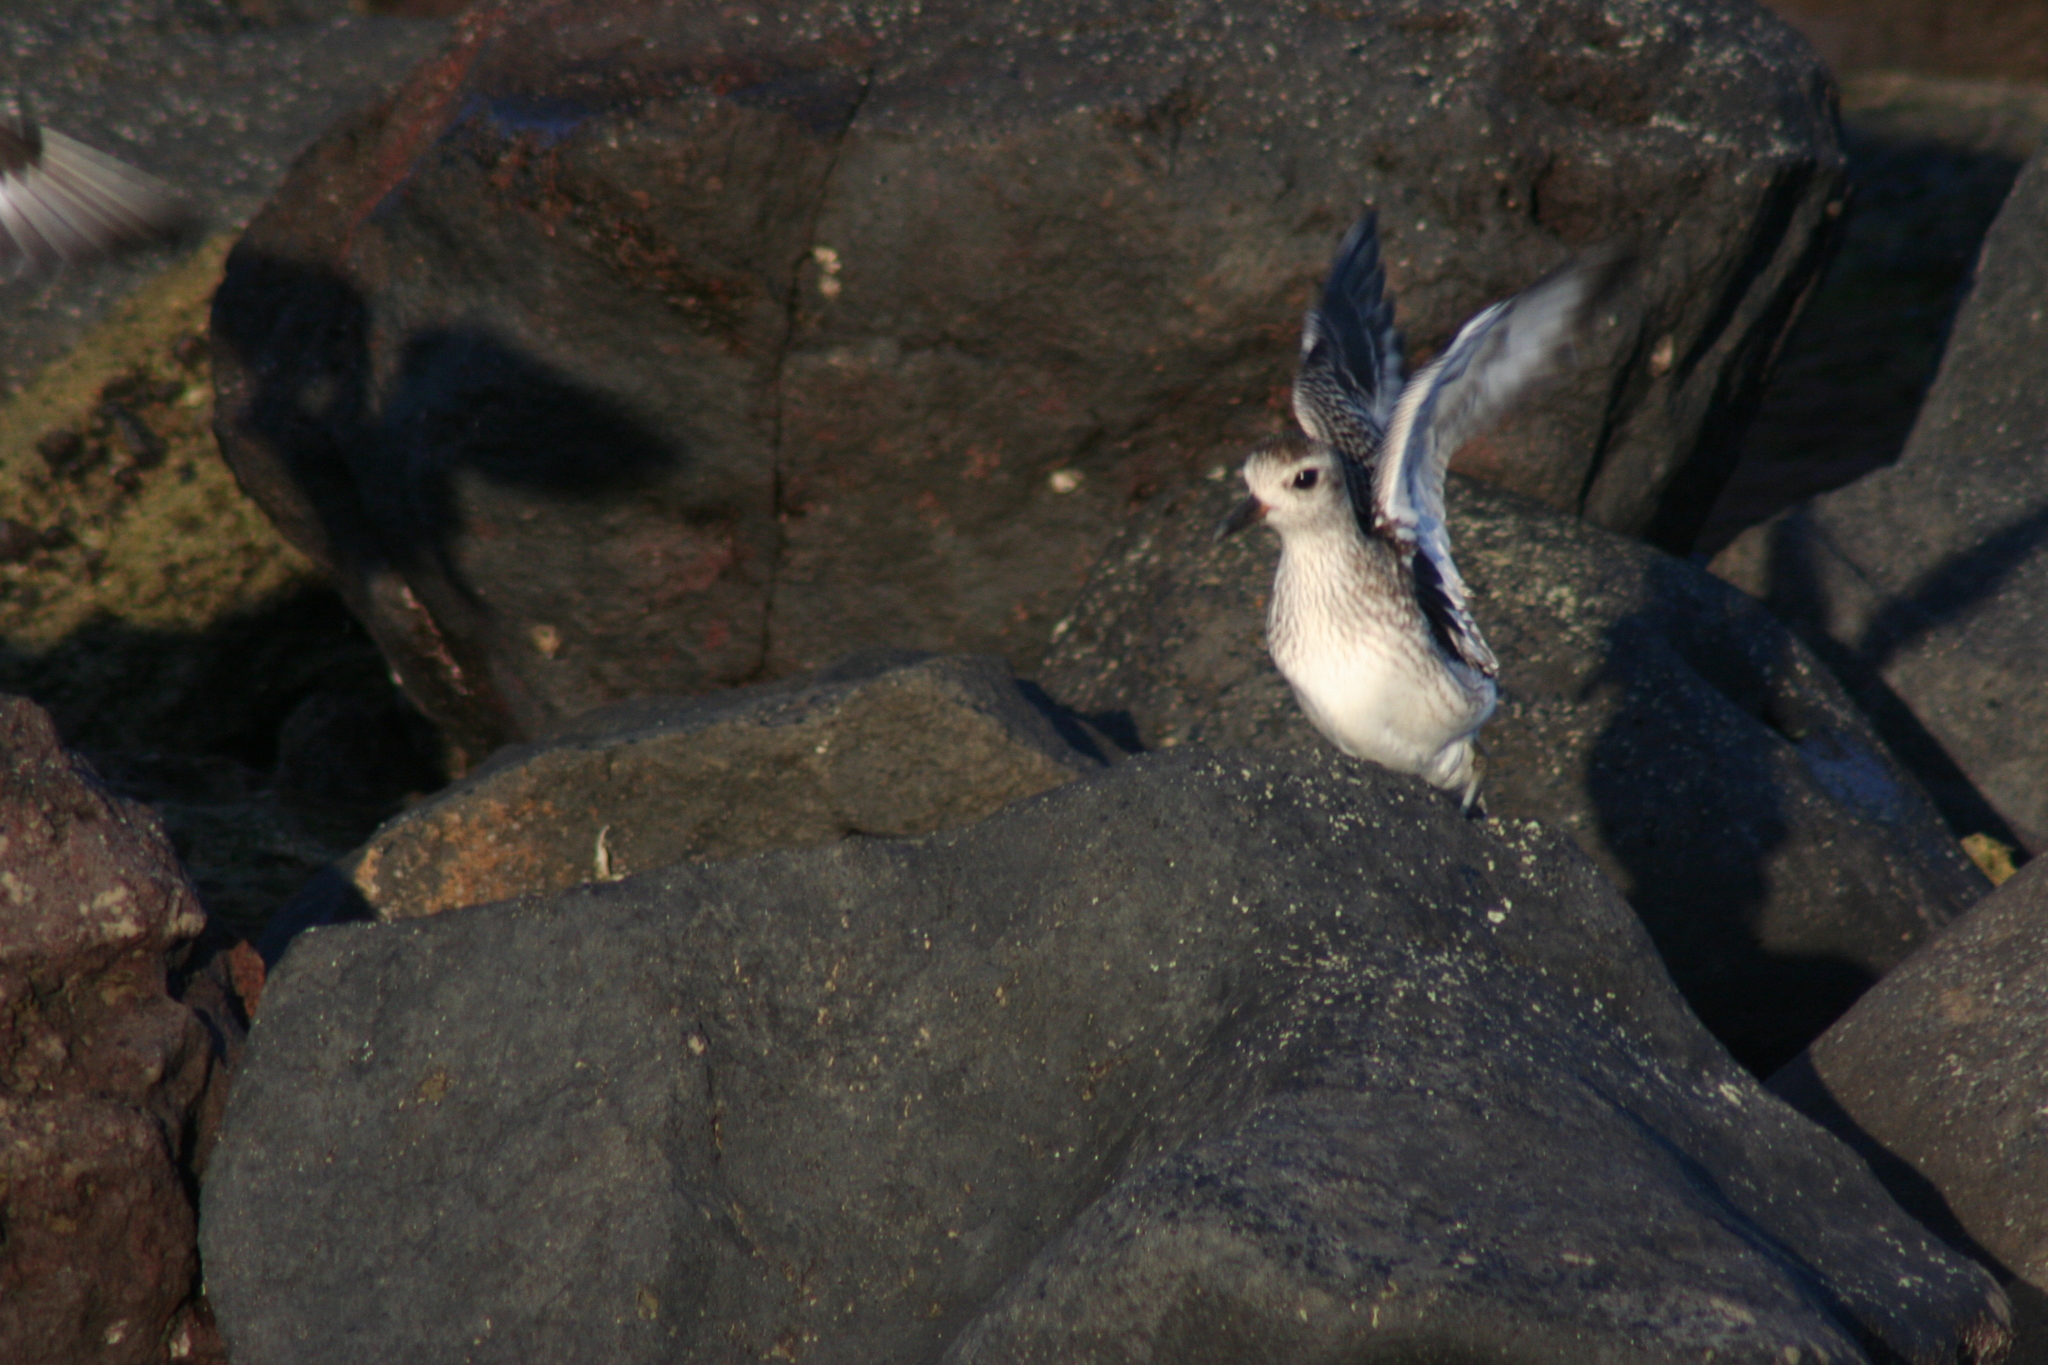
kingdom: Animalia
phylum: Chordata
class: Aves
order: Charadriiformes
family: Charadriidae
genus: Pluvialis
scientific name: Pluvialis squatarola
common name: Grey plover
